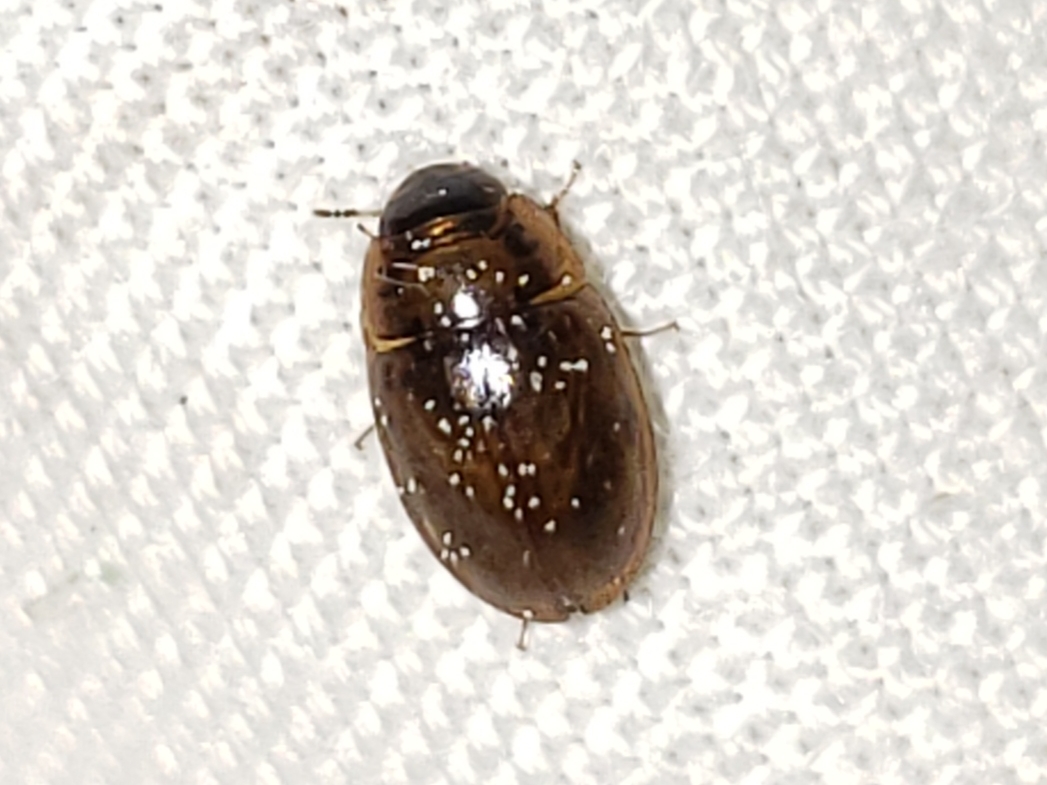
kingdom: Animalia
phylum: Arthropoda
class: Insecta
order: Coleoptera
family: Hydrophilidae
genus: Enochrus
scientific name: Enochrus pygmaeus
